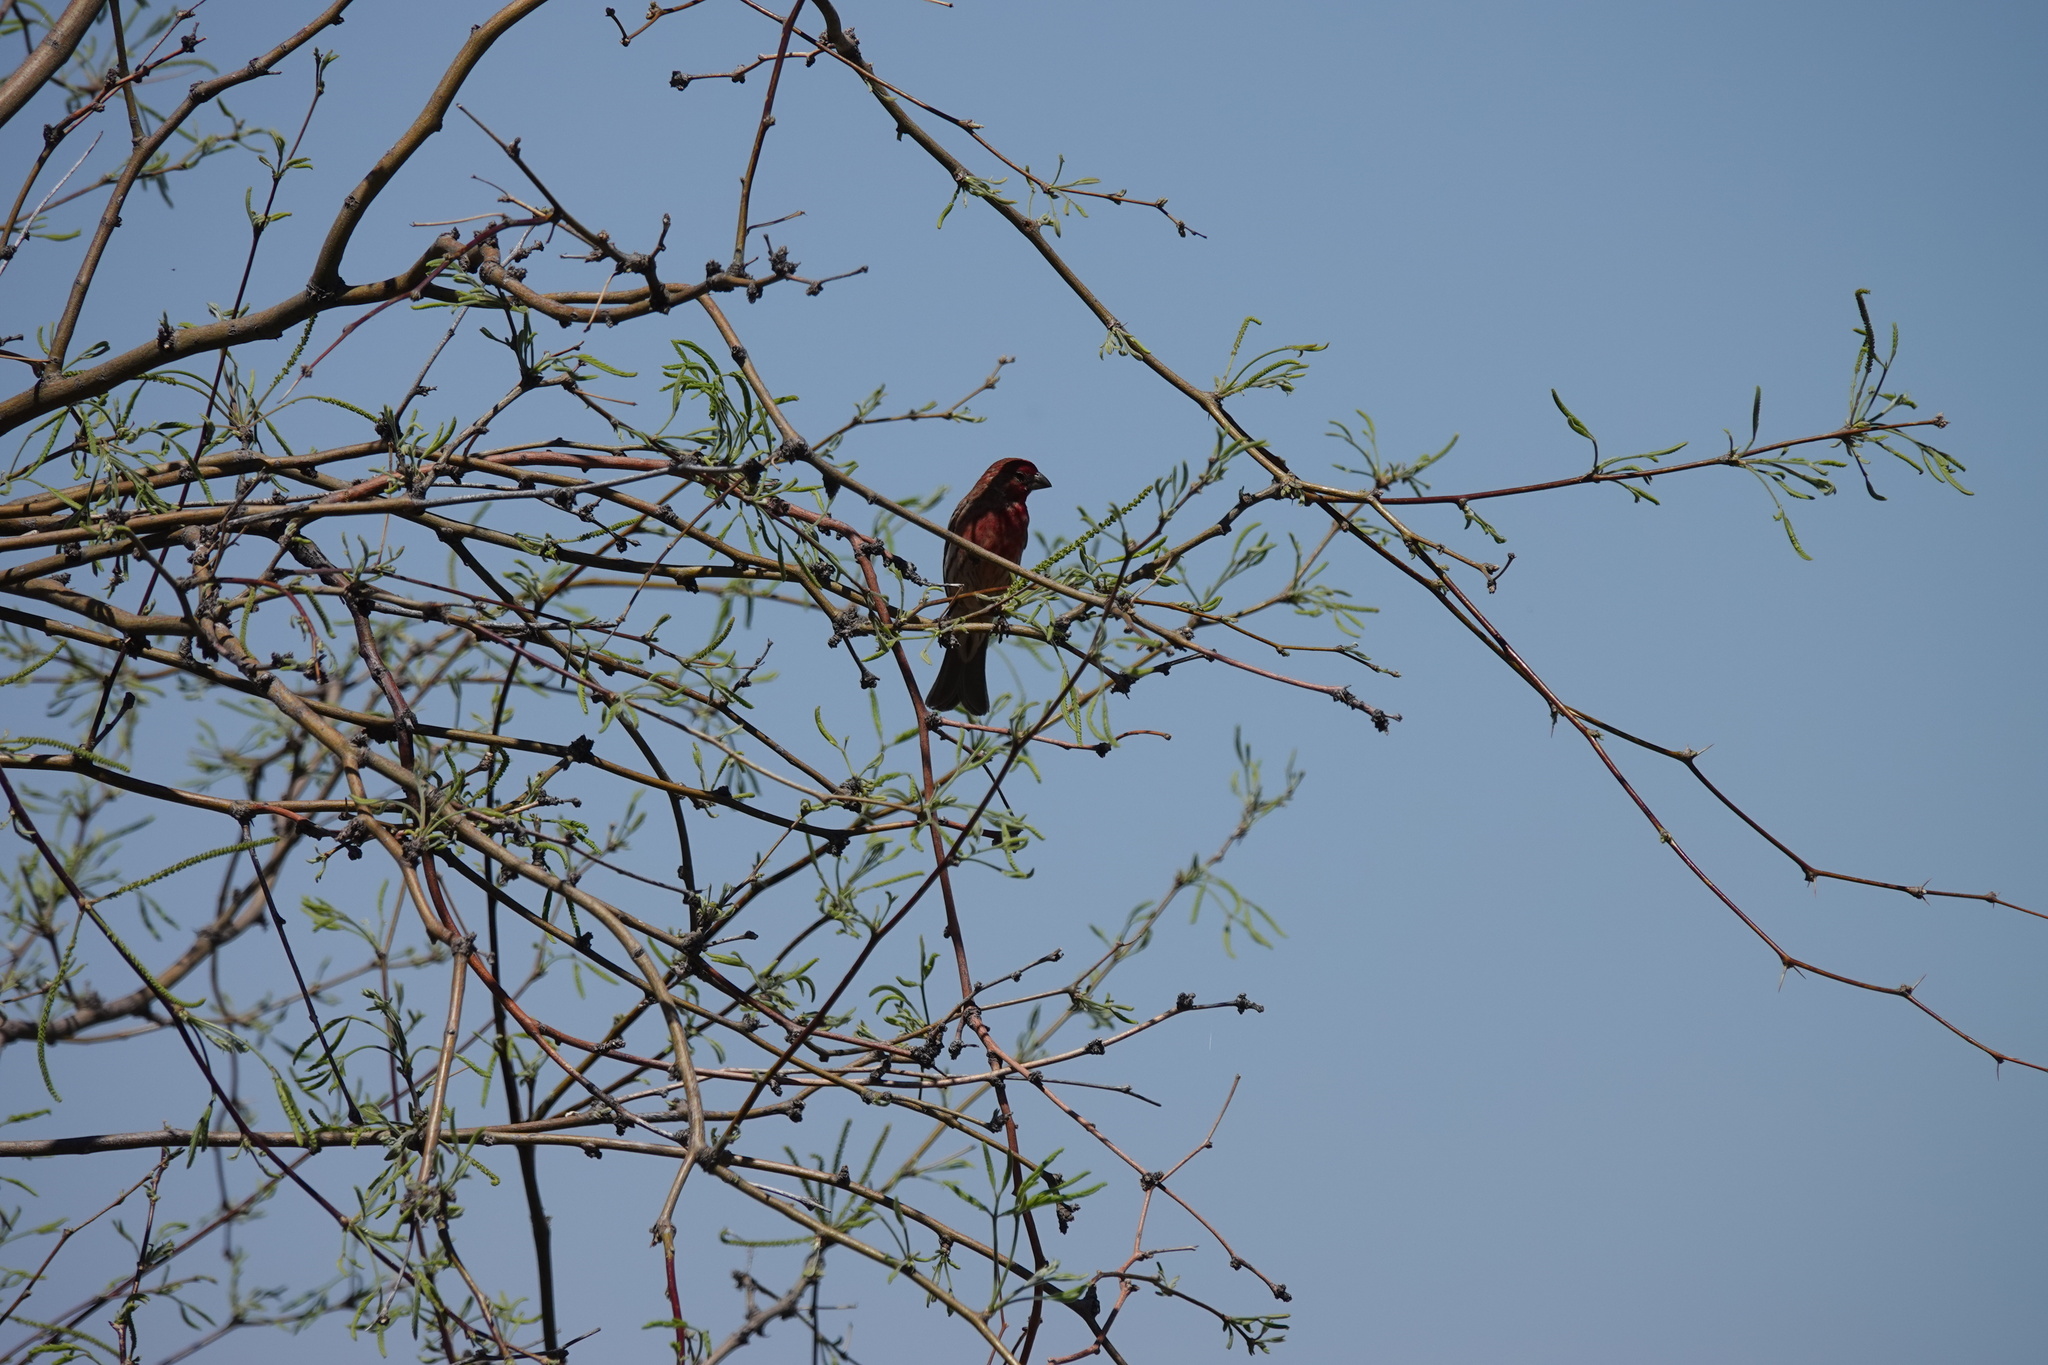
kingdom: Animalia
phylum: Chordata
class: Aves
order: Passeriformes
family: Fringillidae
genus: Haemorhous
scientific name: Haemorhous mexicanus
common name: House finch
